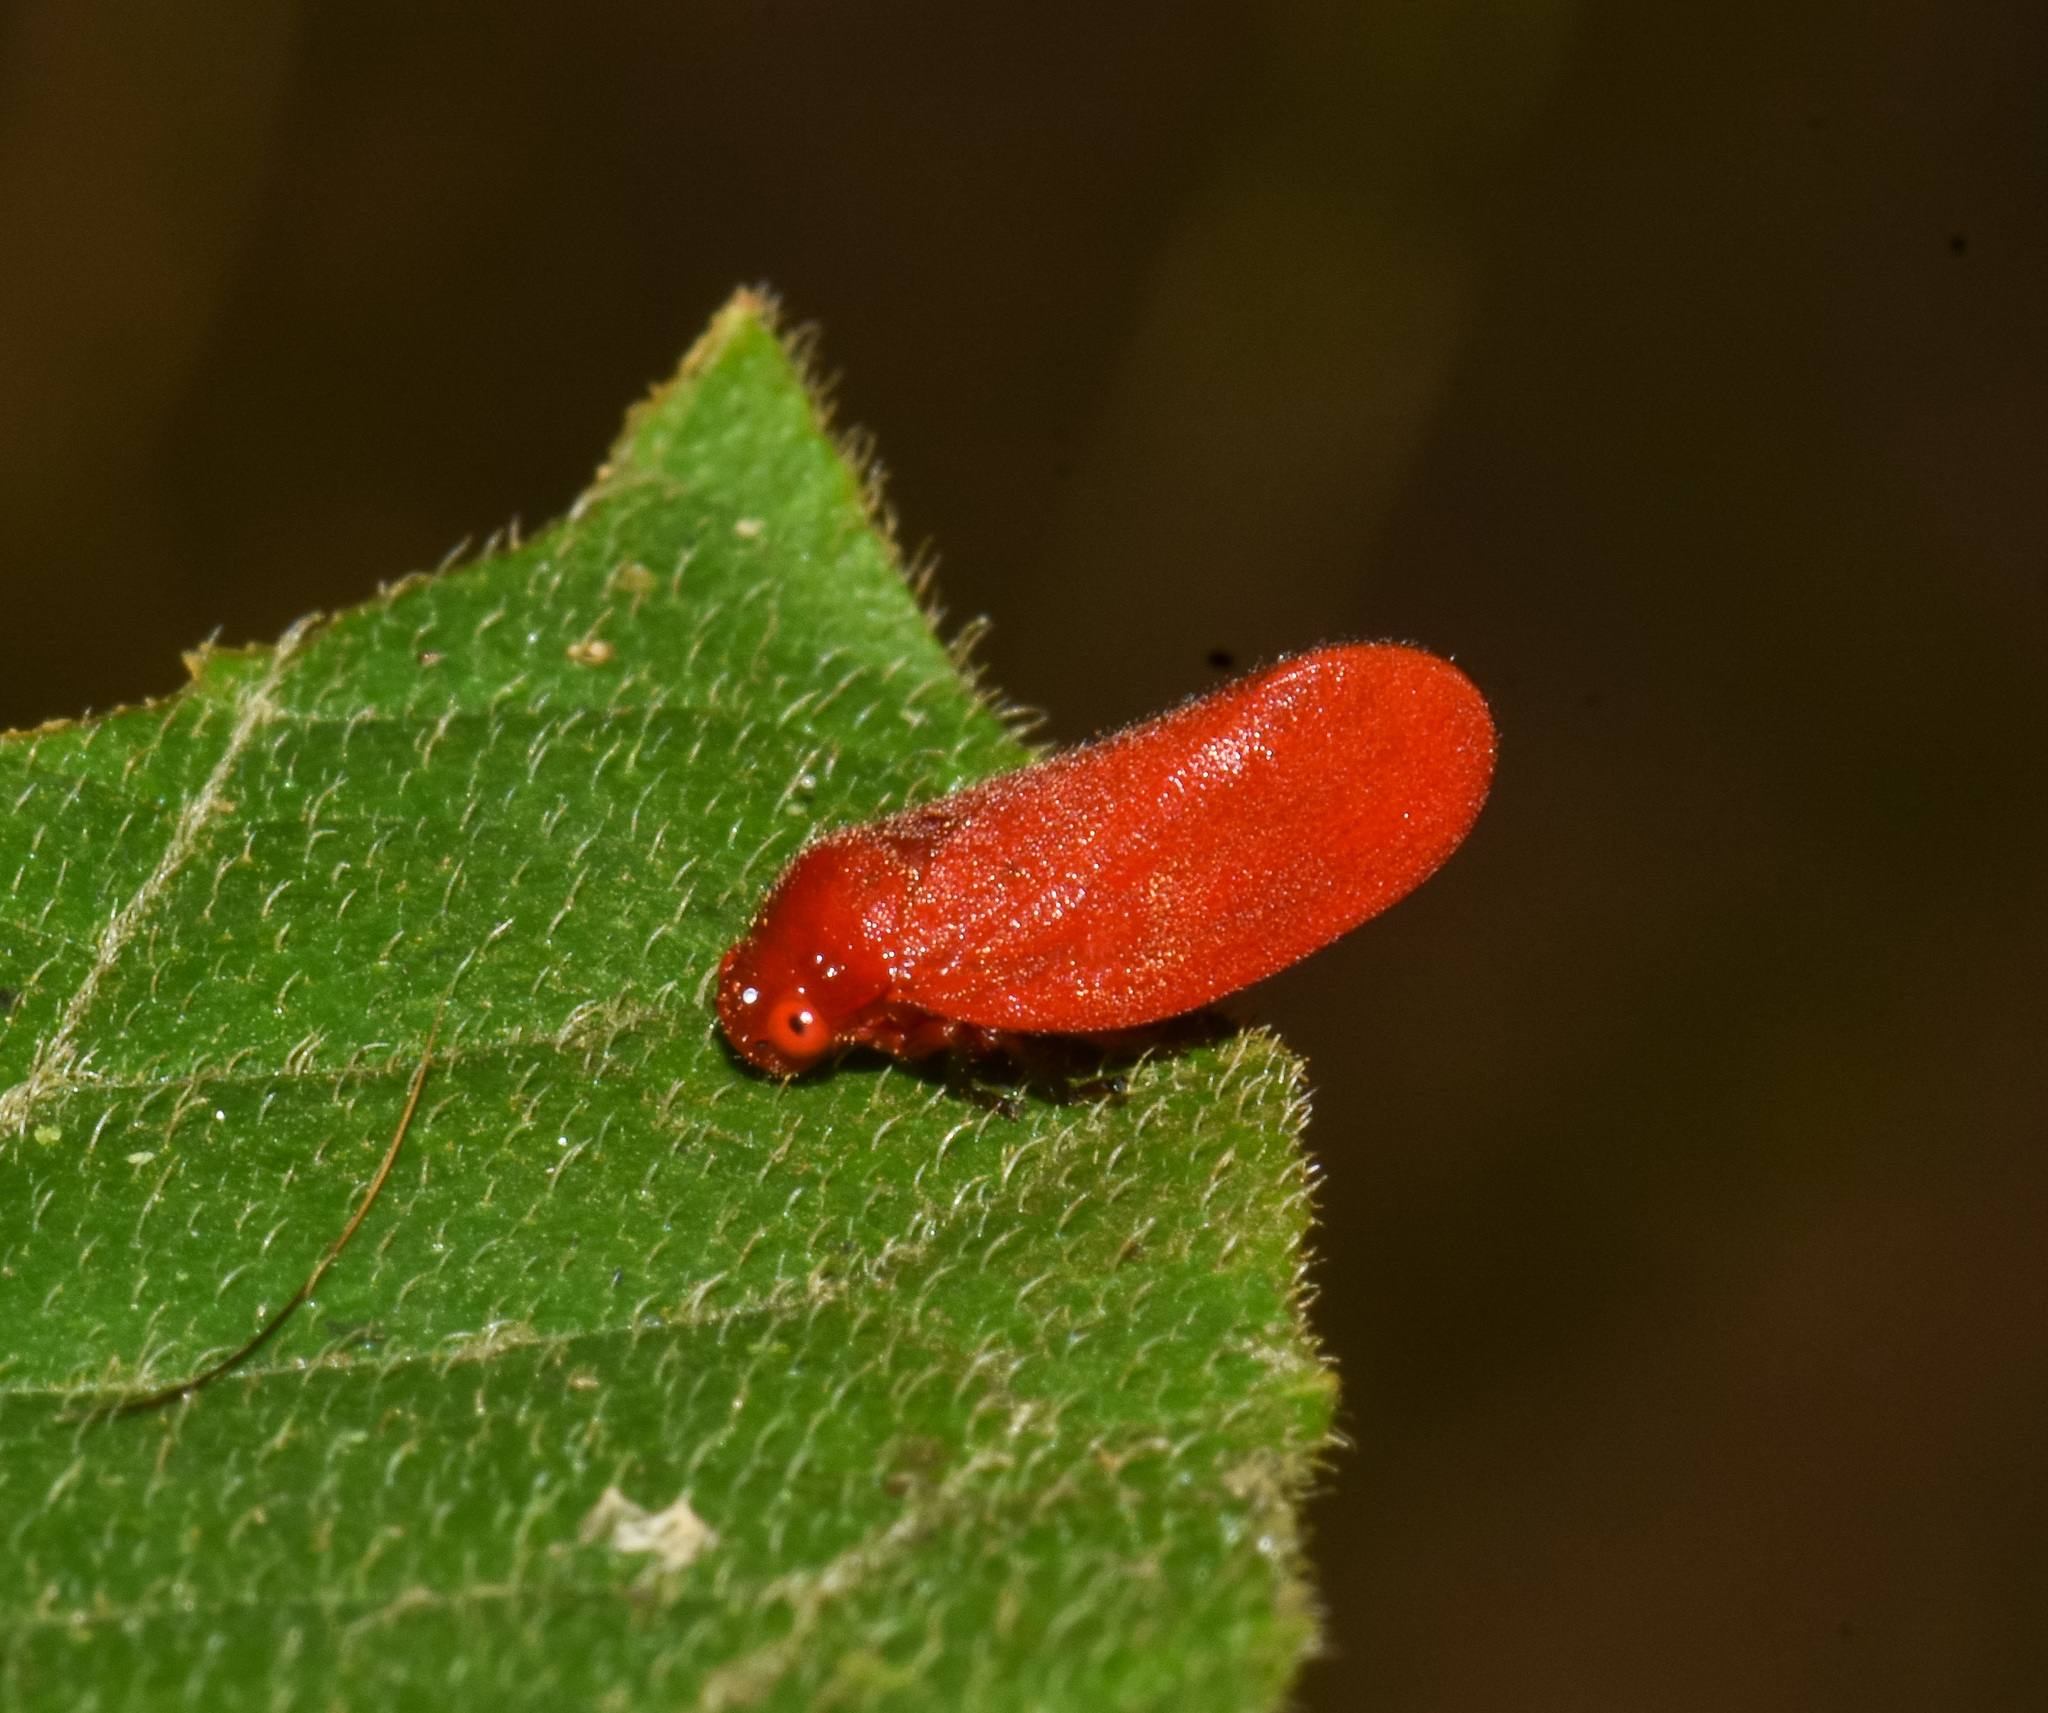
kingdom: Animalia
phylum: Arthropoda
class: Insecta
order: Hemiptera
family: Cercopidae
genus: Eoscarta
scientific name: Eoscarta borealis
